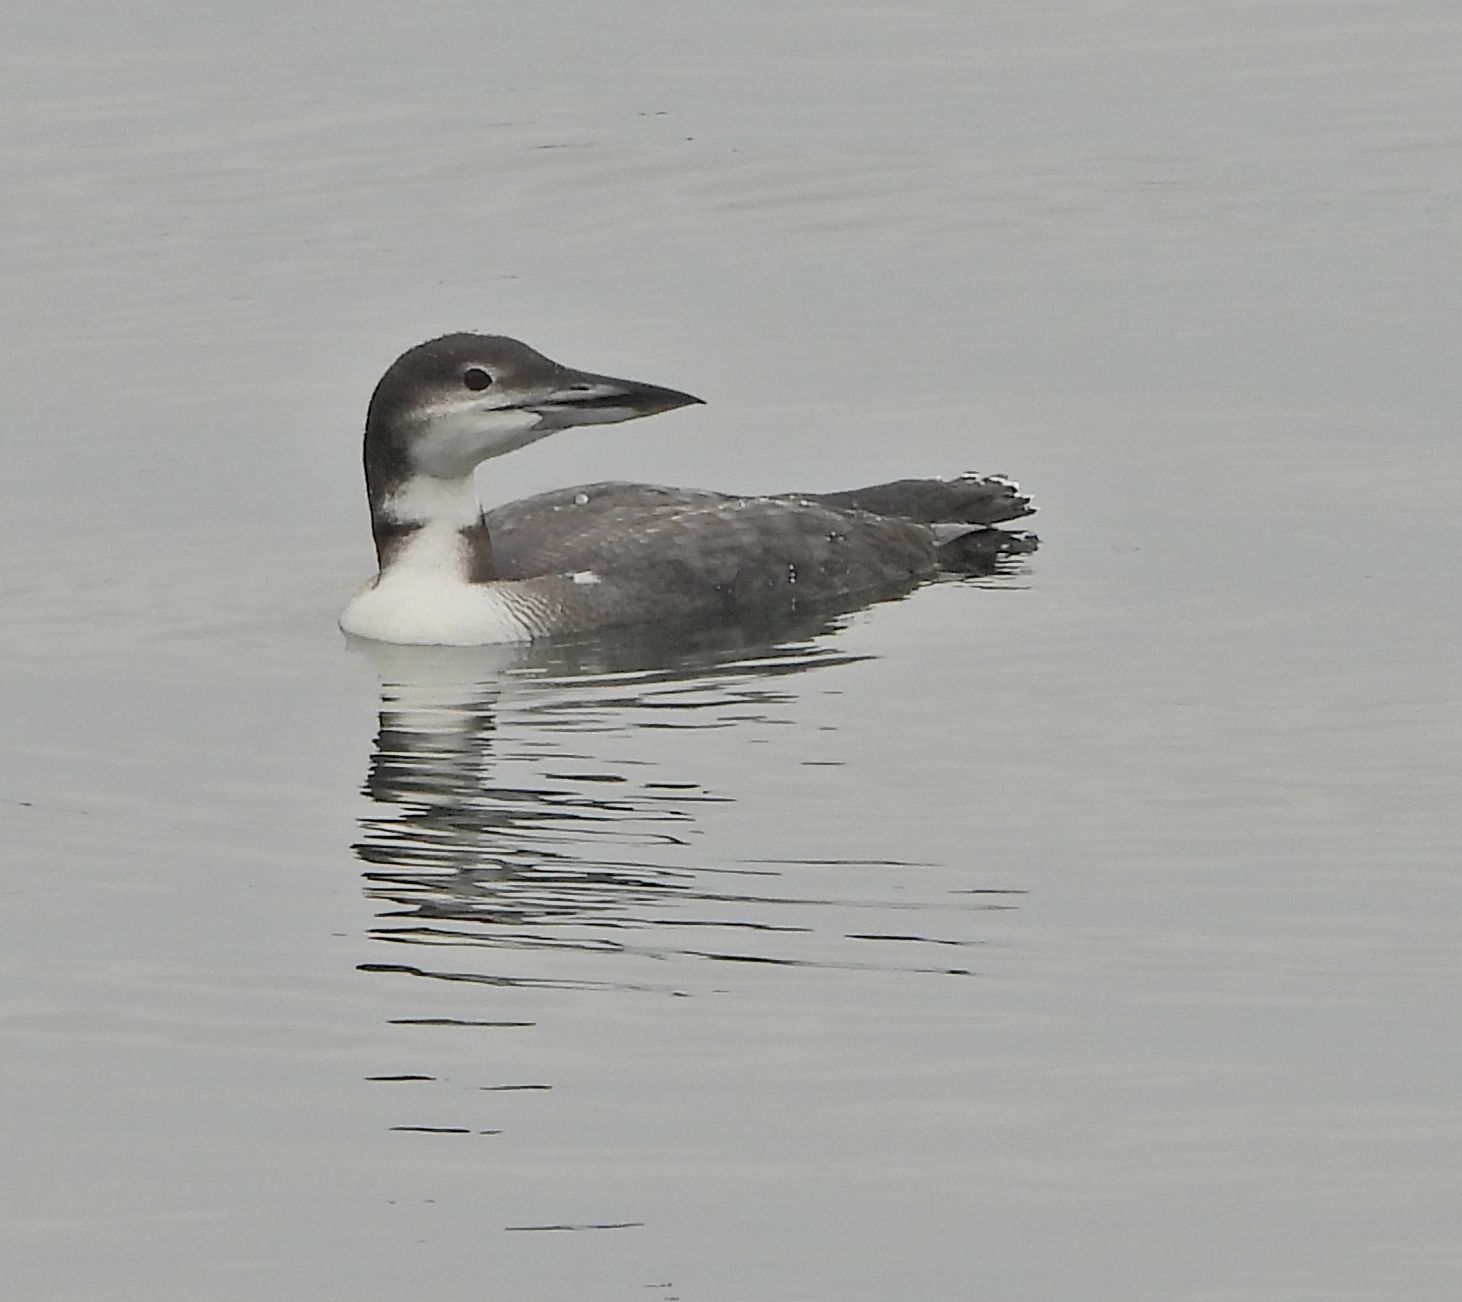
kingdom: Animalia
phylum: Chordata
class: Aves
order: Gaviiformes
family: Gaviidae
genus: Gavia
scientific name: Gavia immer
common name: Common loon
